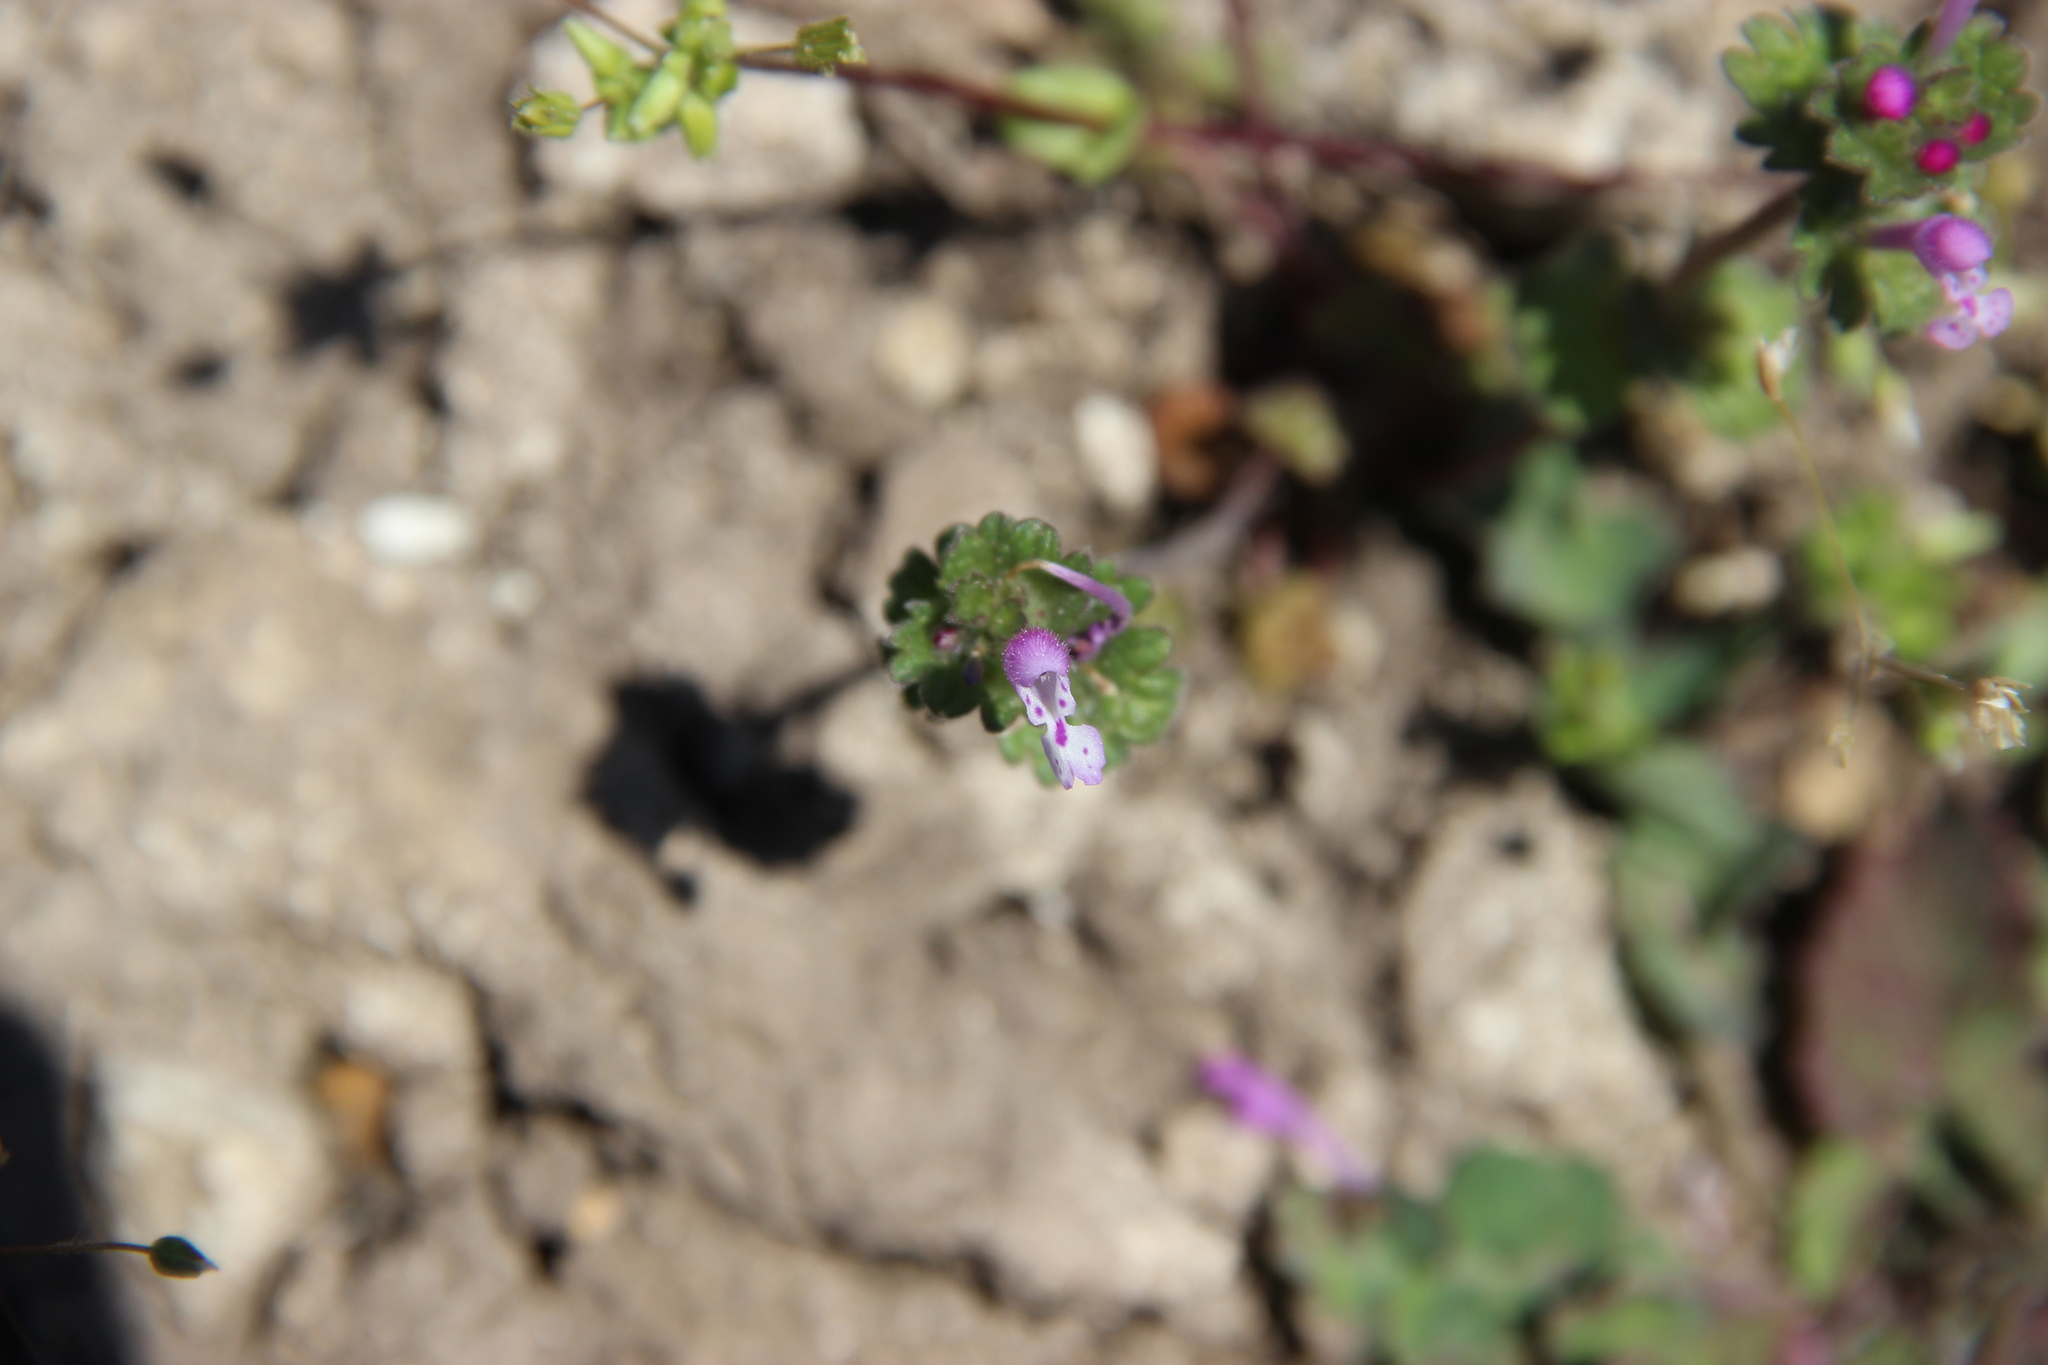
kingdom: Plantae
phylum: Tracheophyta
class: Magnoliopsida
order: Lamiales
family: Lamiaceae
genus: Lamium
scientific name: Lamium amplexicaule
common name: Henbit dead-nettle
